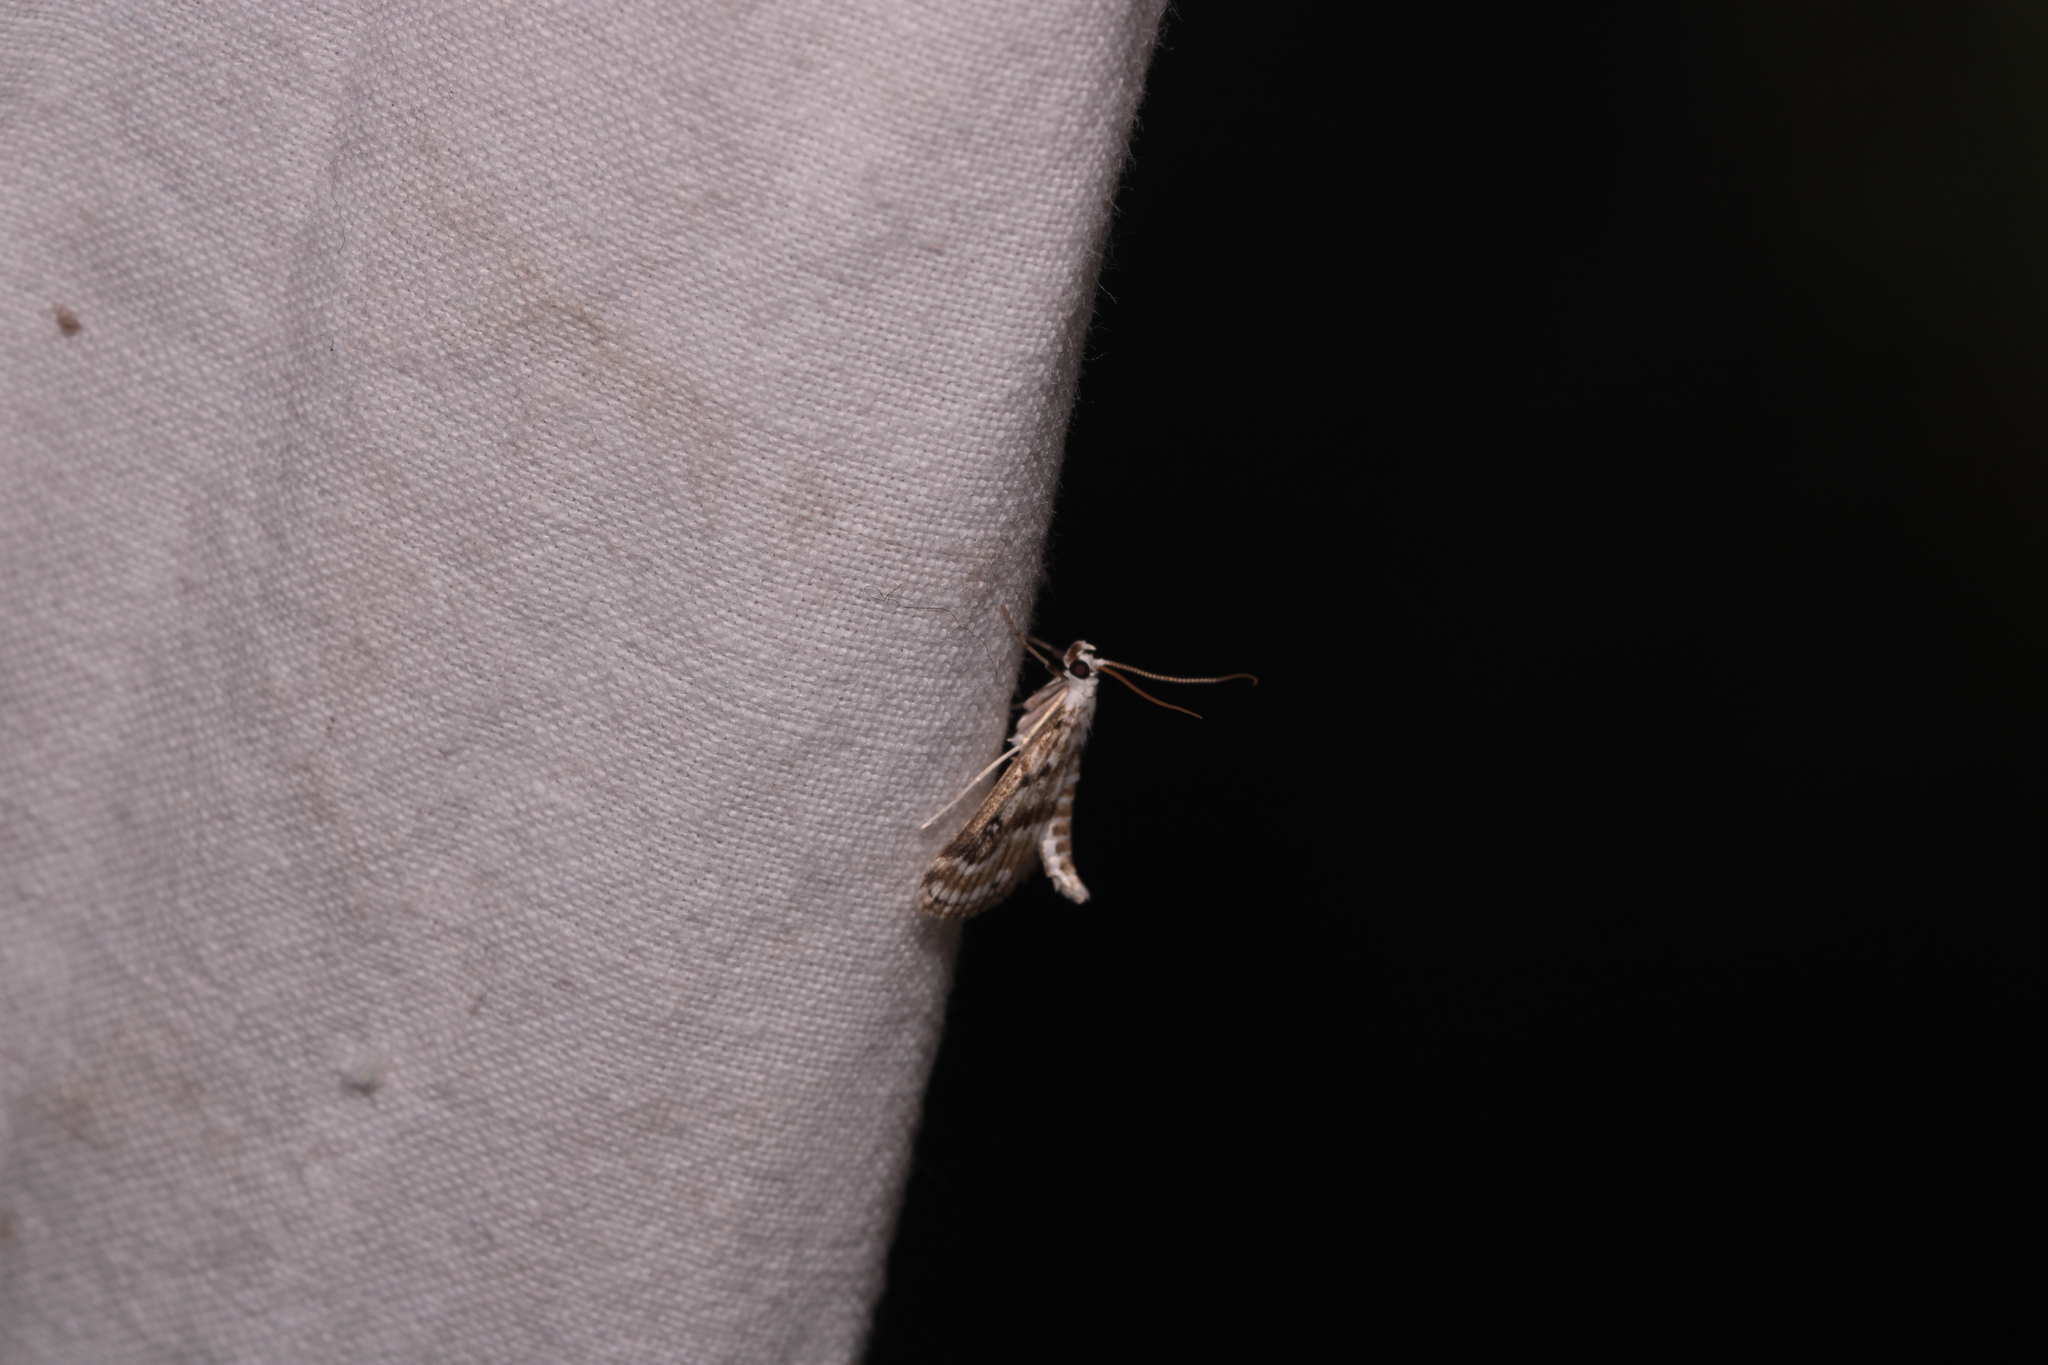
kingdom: Animalia
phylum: Arthropoda
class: Insecta
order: Lepidoptera
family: Crambidae
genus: Parapoynx
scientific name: Parapoynx stratiotata
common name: Ringed china-mark
